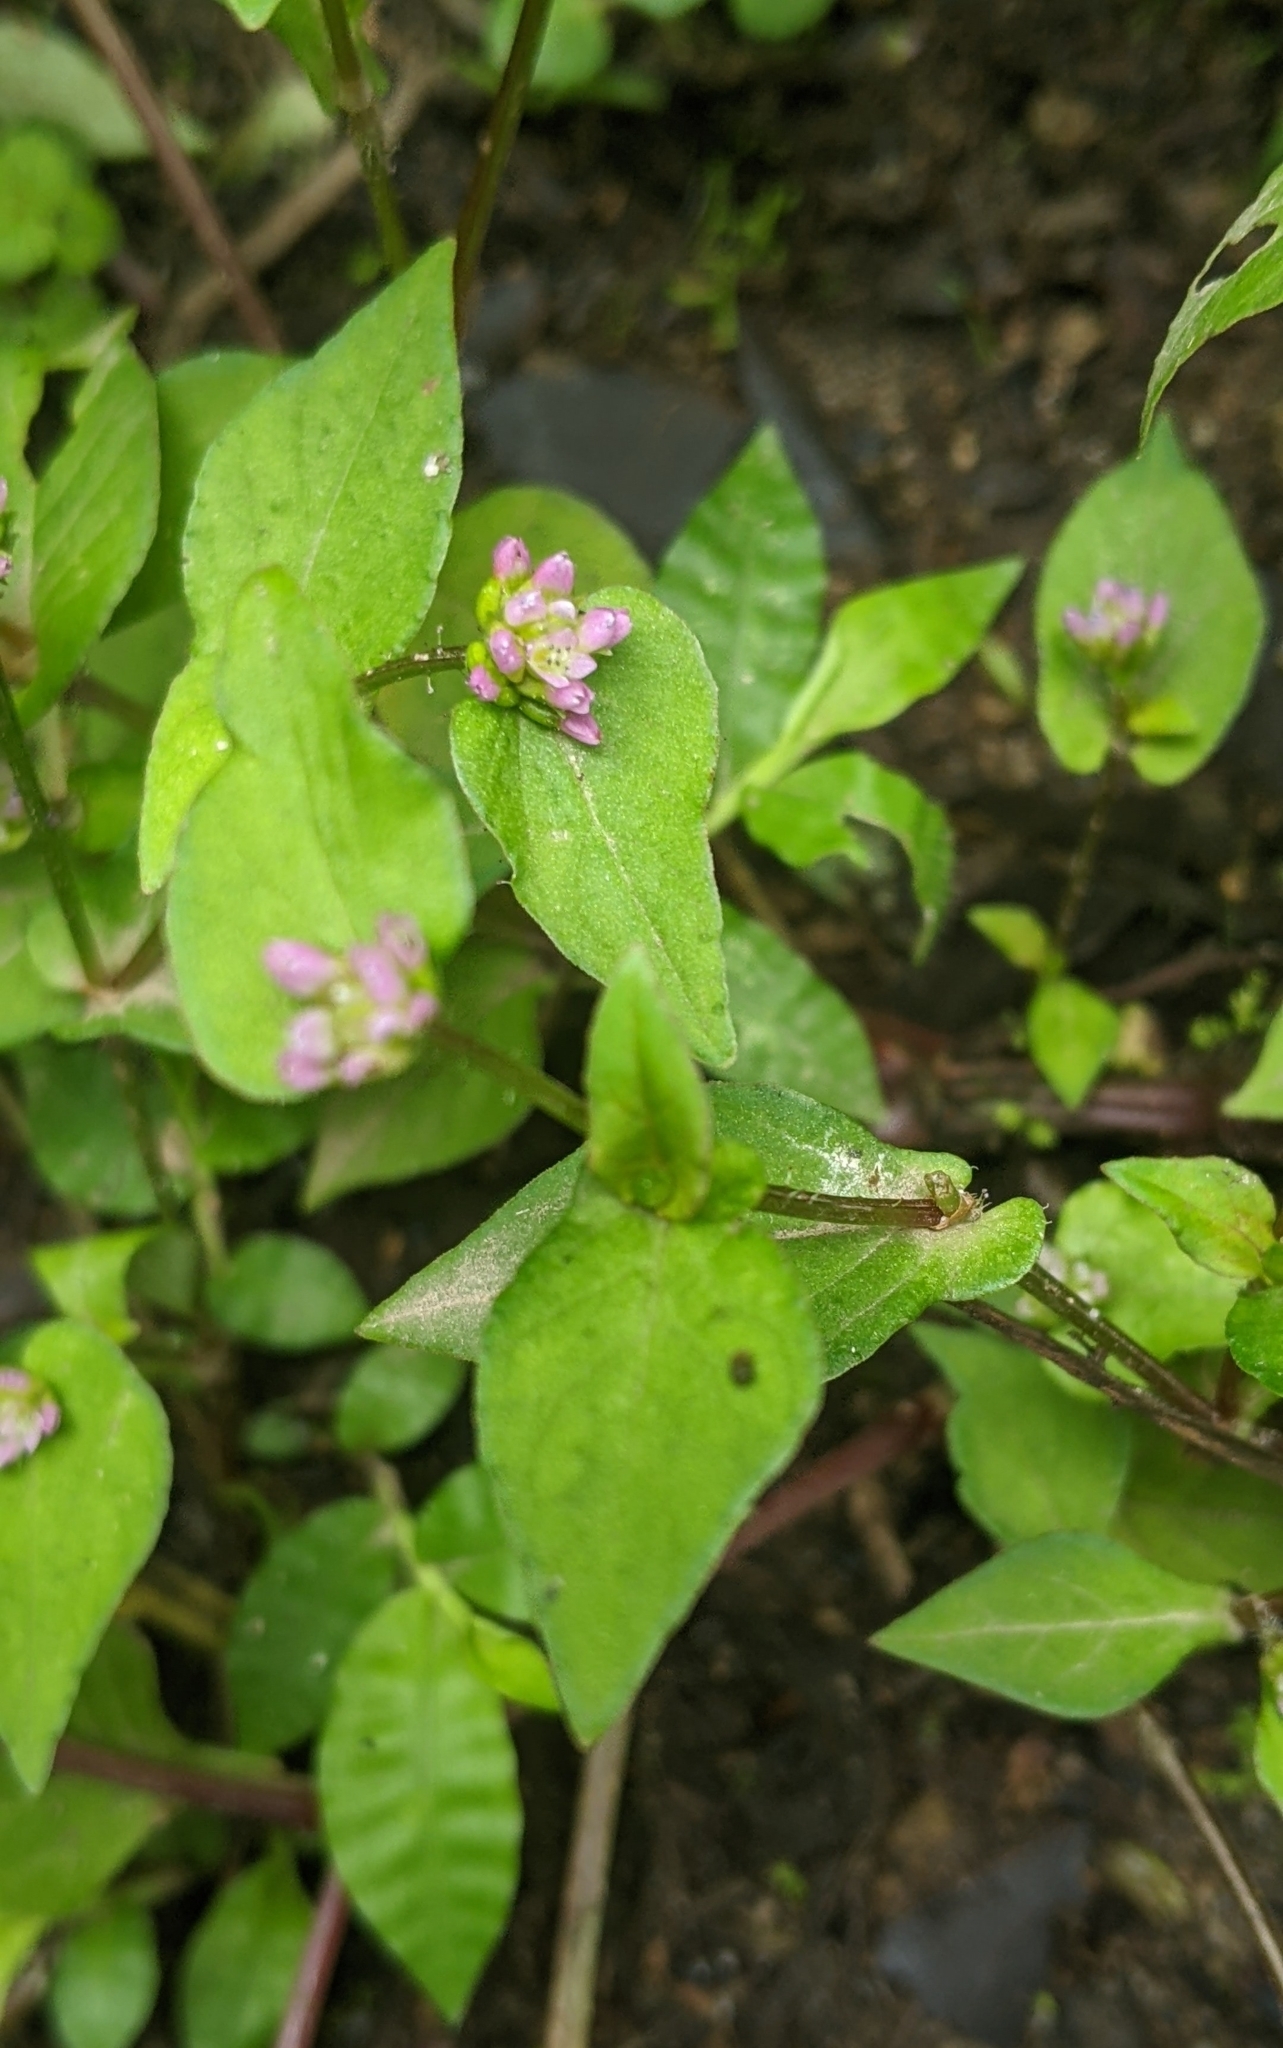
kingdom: Plantae
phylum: Tracheophyta
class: Magnoliopsida
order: Caryophyllales
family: Polygonaceae
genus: Persicaria
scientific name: Persicaria nepalensis
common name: Nepal persicaria
